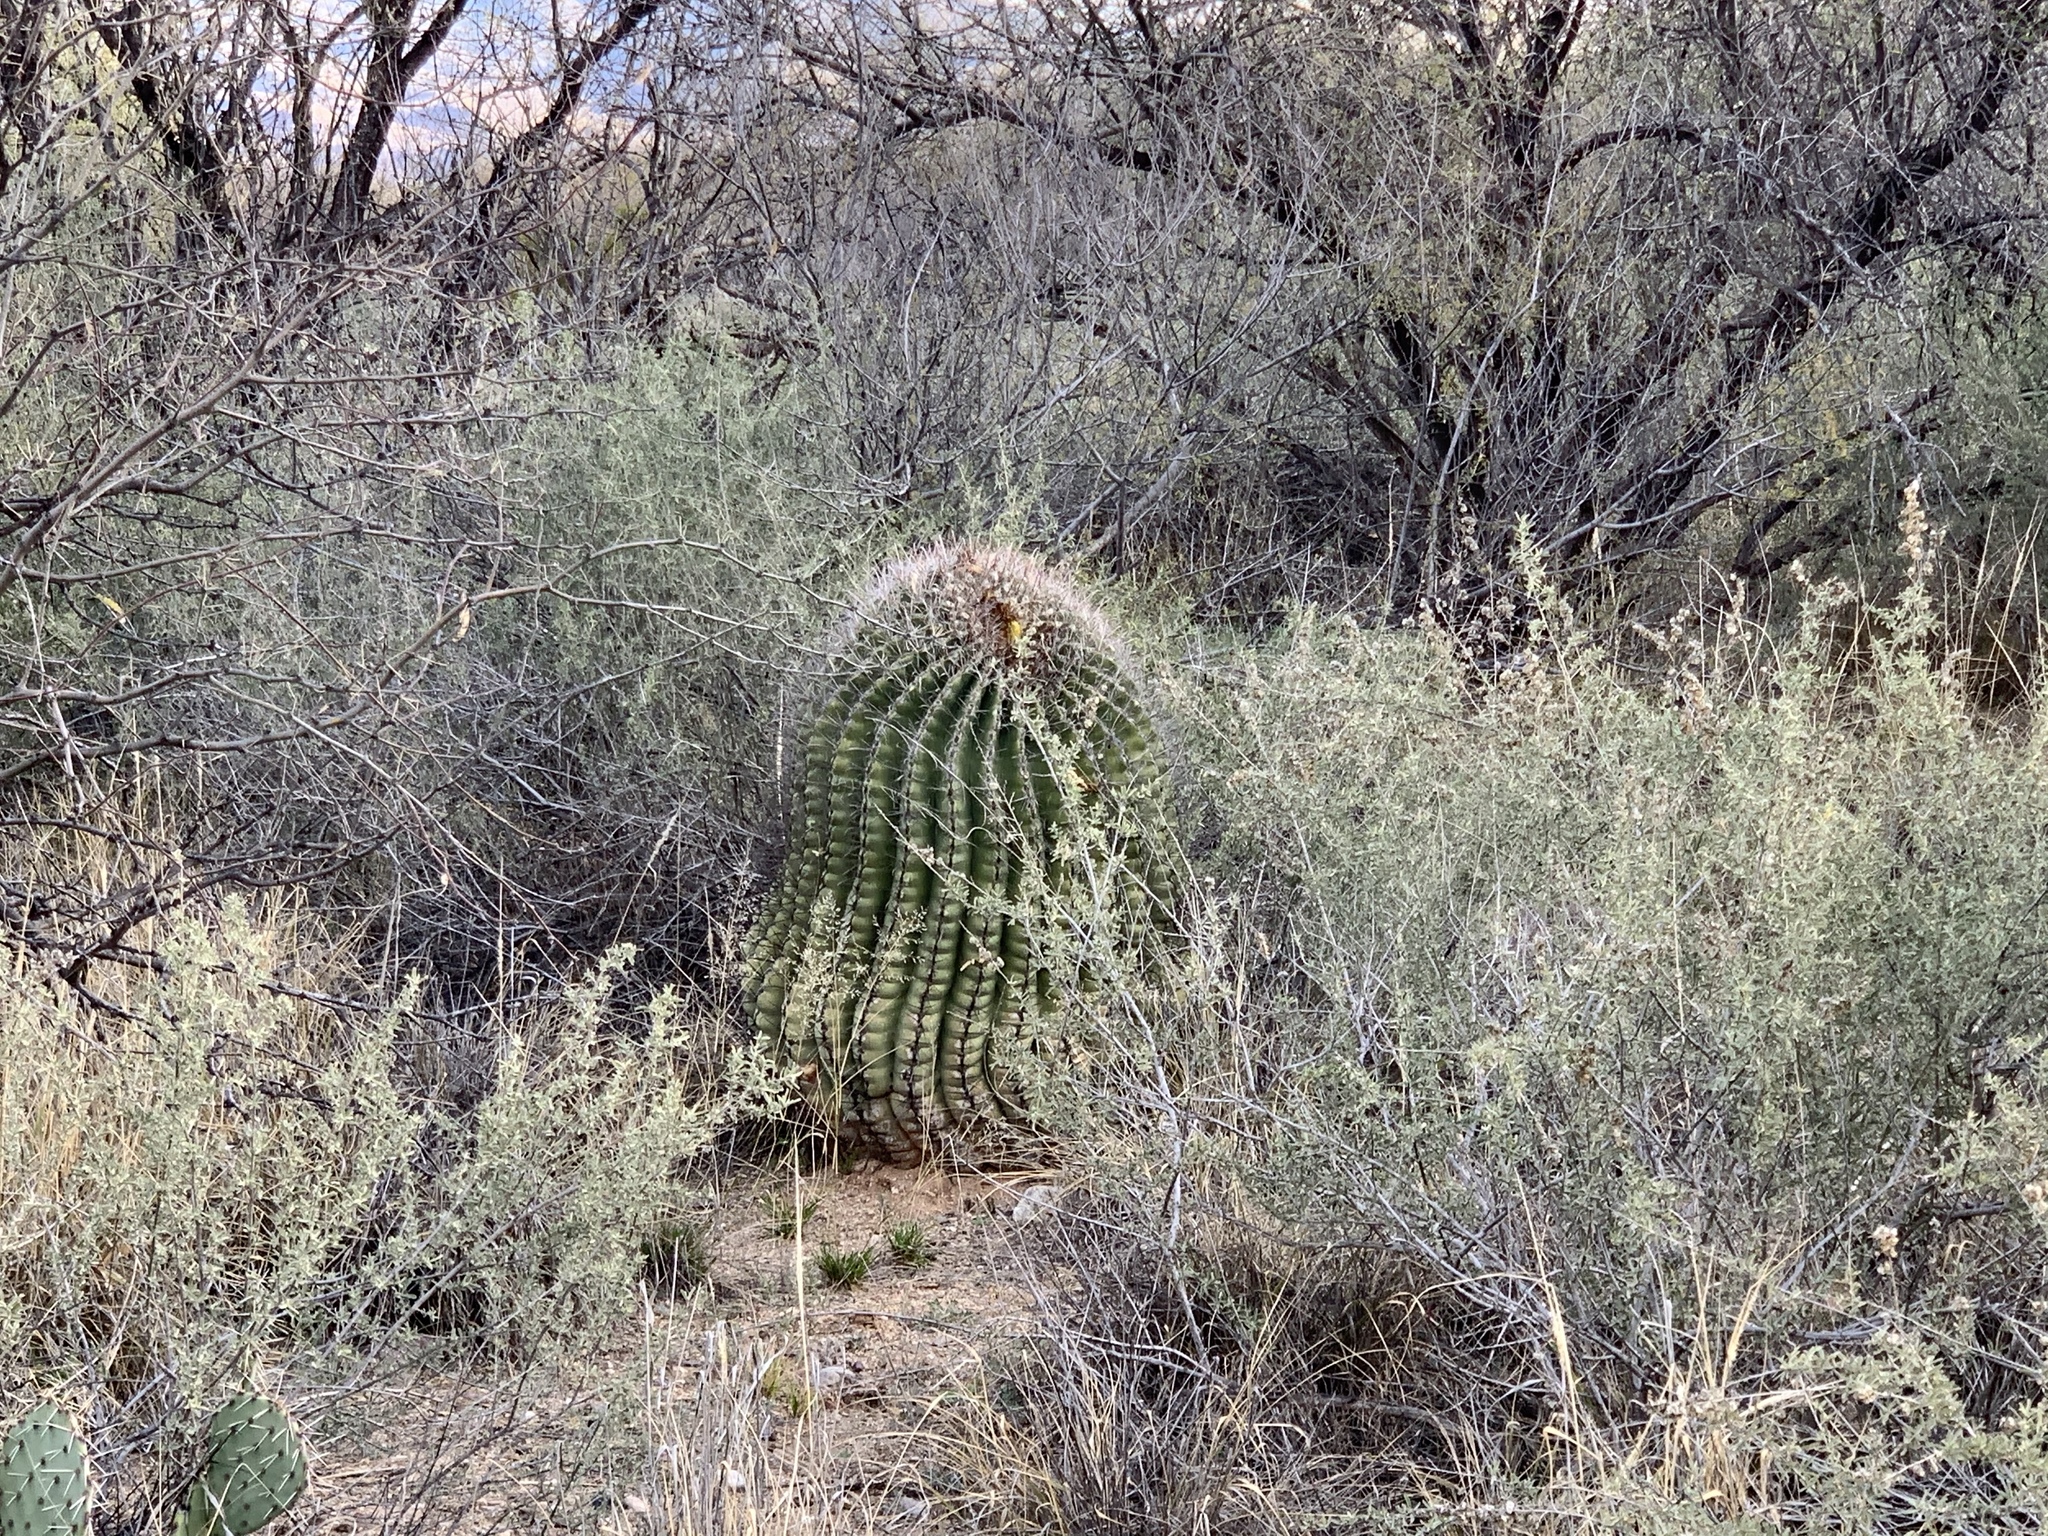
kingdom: Plantae
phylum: Tracheophyta
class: Magnoliopsida
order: Caryophyllales
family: Cactaceae
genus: Ferocactus
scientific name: Ferocactus wislizeni
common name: Candy barrel cactus
